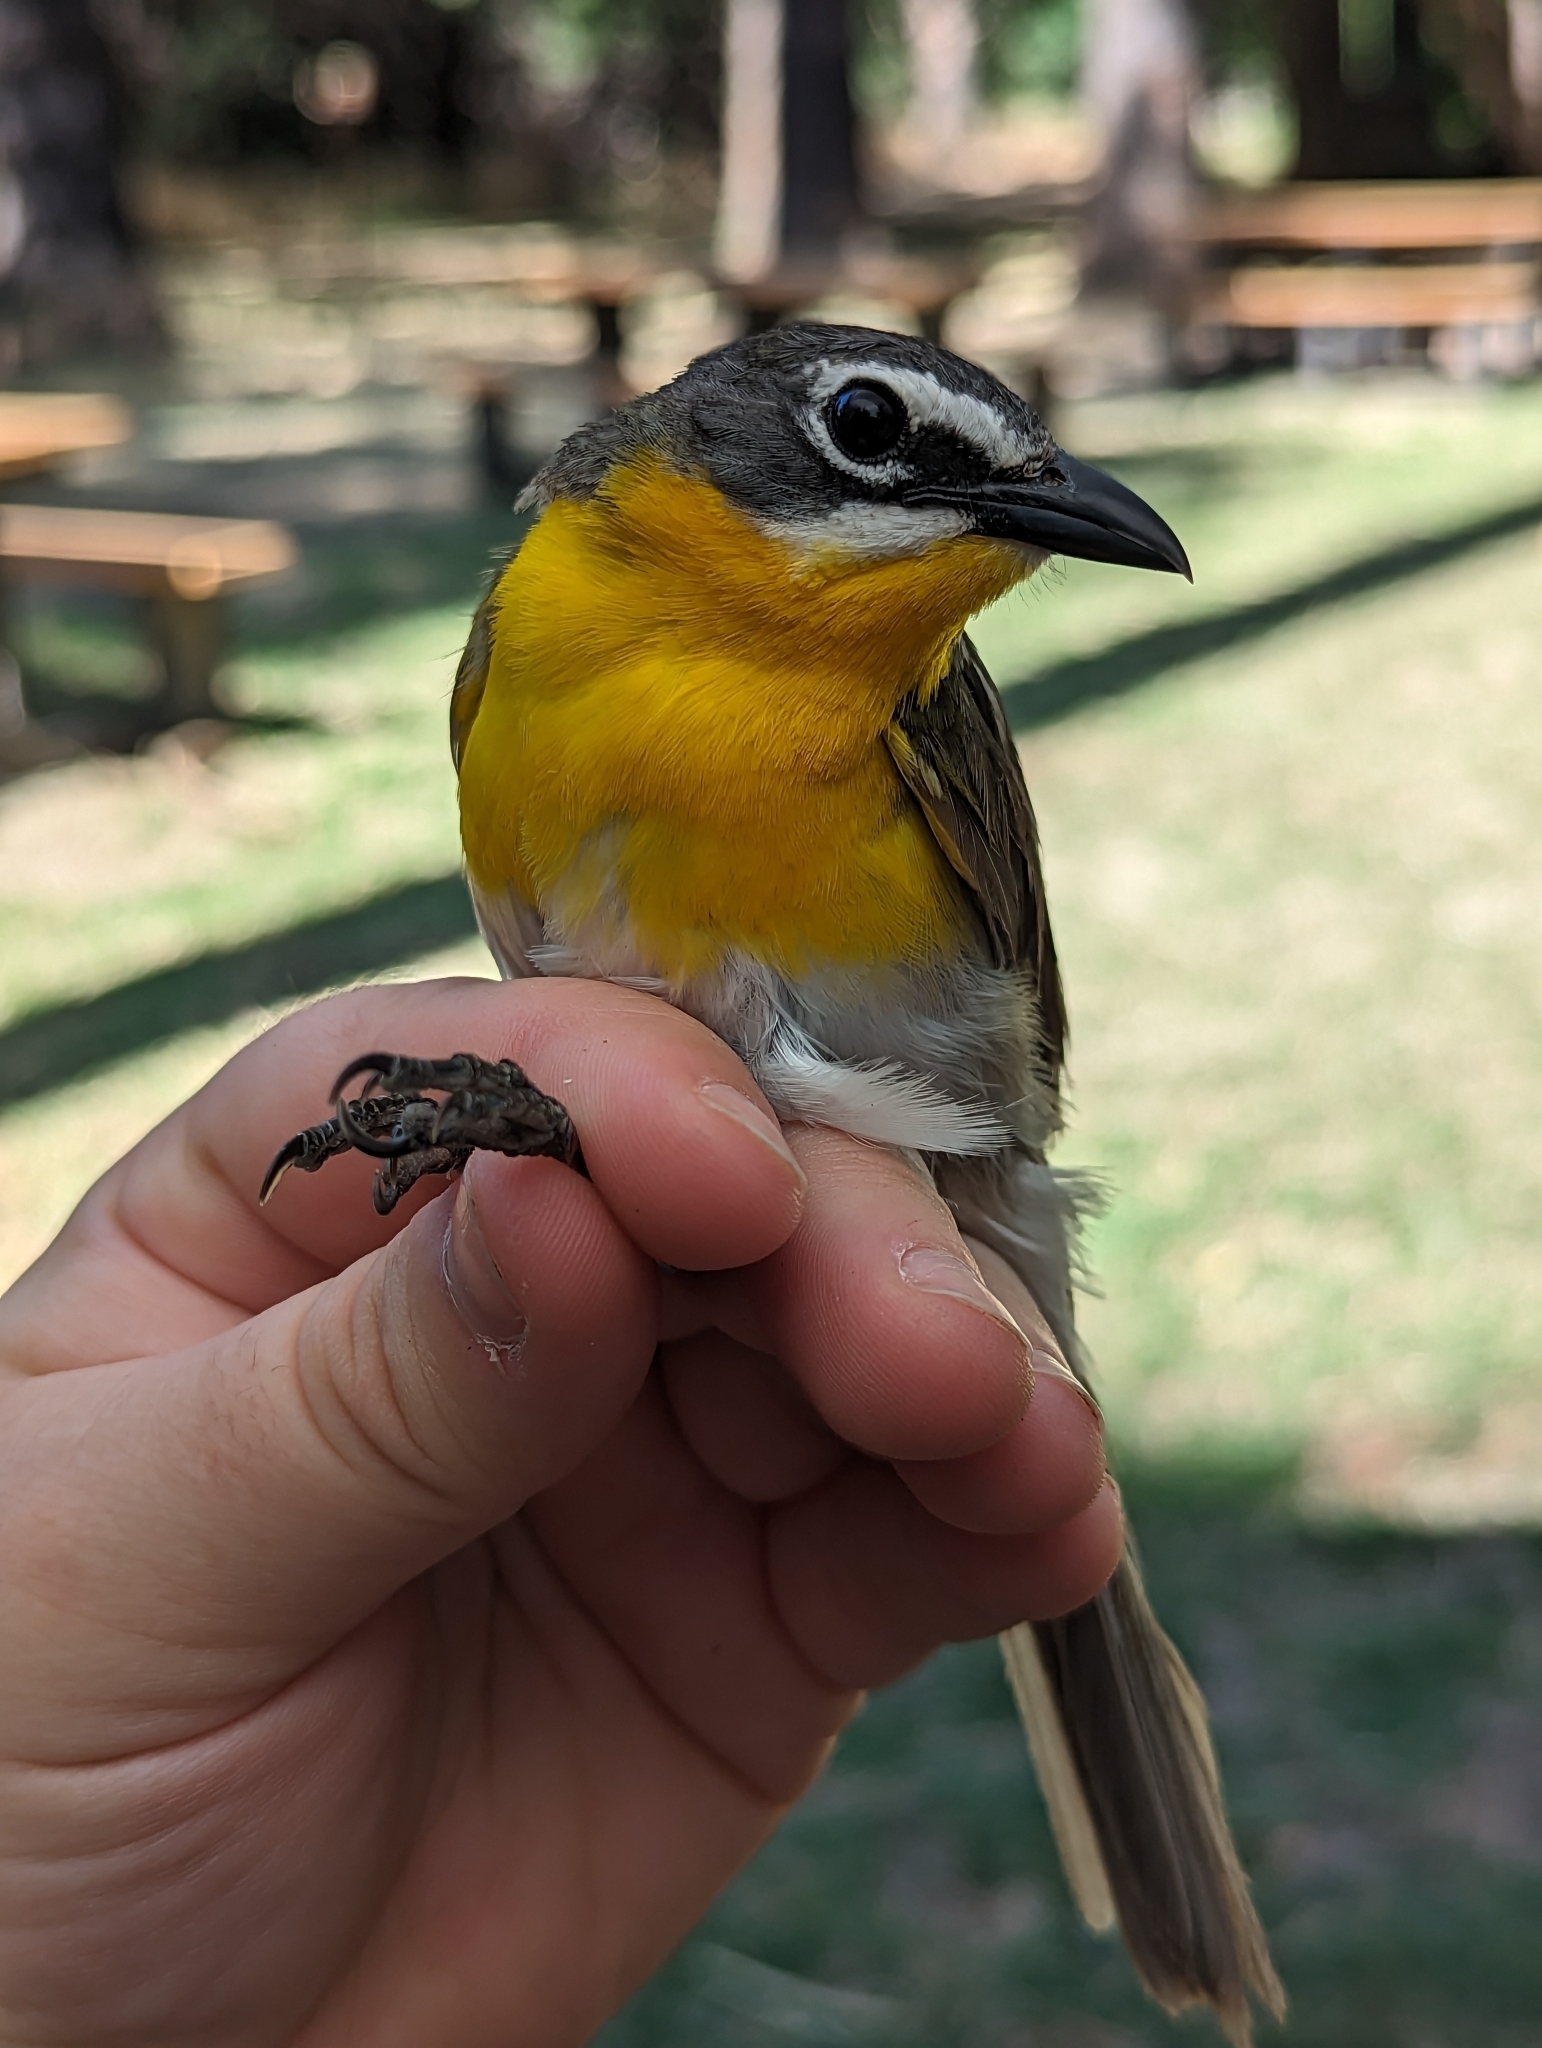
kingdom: Animalia
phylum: Chordata
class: Aves
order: Passeriformes
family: Parulidae
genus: Icteria
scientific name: Icteria virens
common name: Yellow-breasted chat
